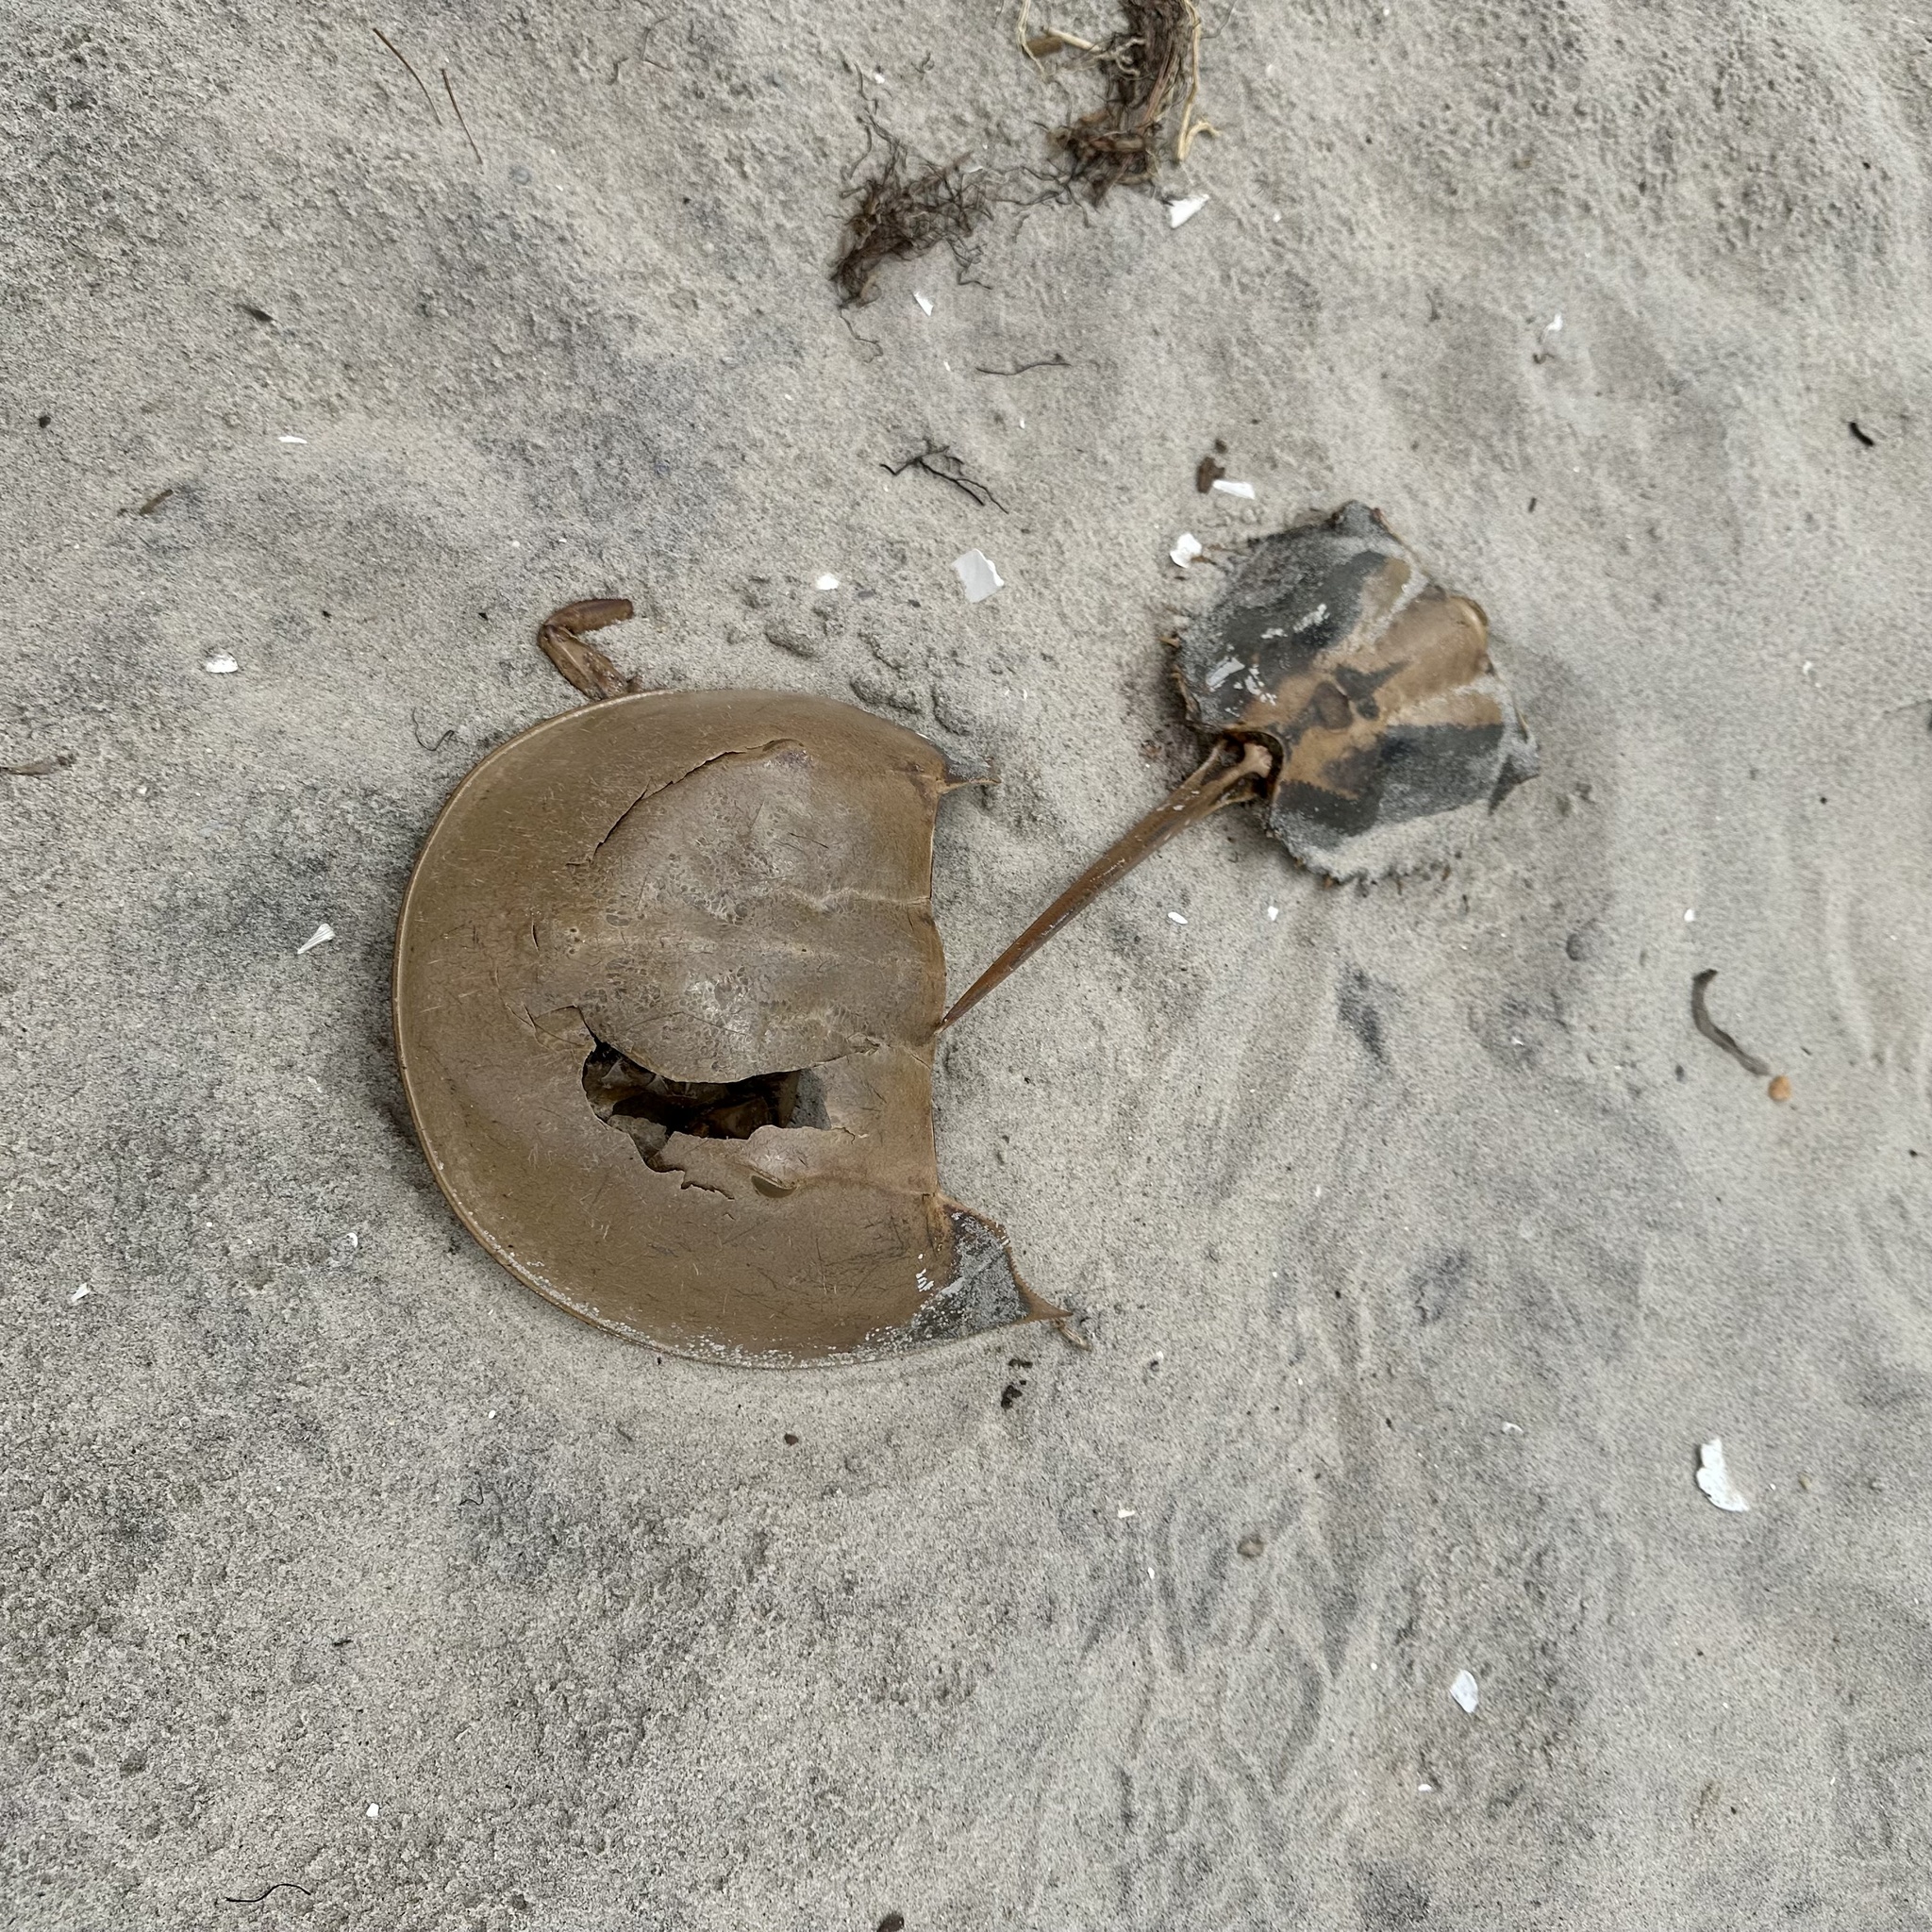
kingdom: Animalia
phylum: Arthropoda
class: Merostomata
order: Xiphosurida
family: Limulidae
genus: Limulus
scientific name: Limulus polyphemus
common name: Horseshoe crab
